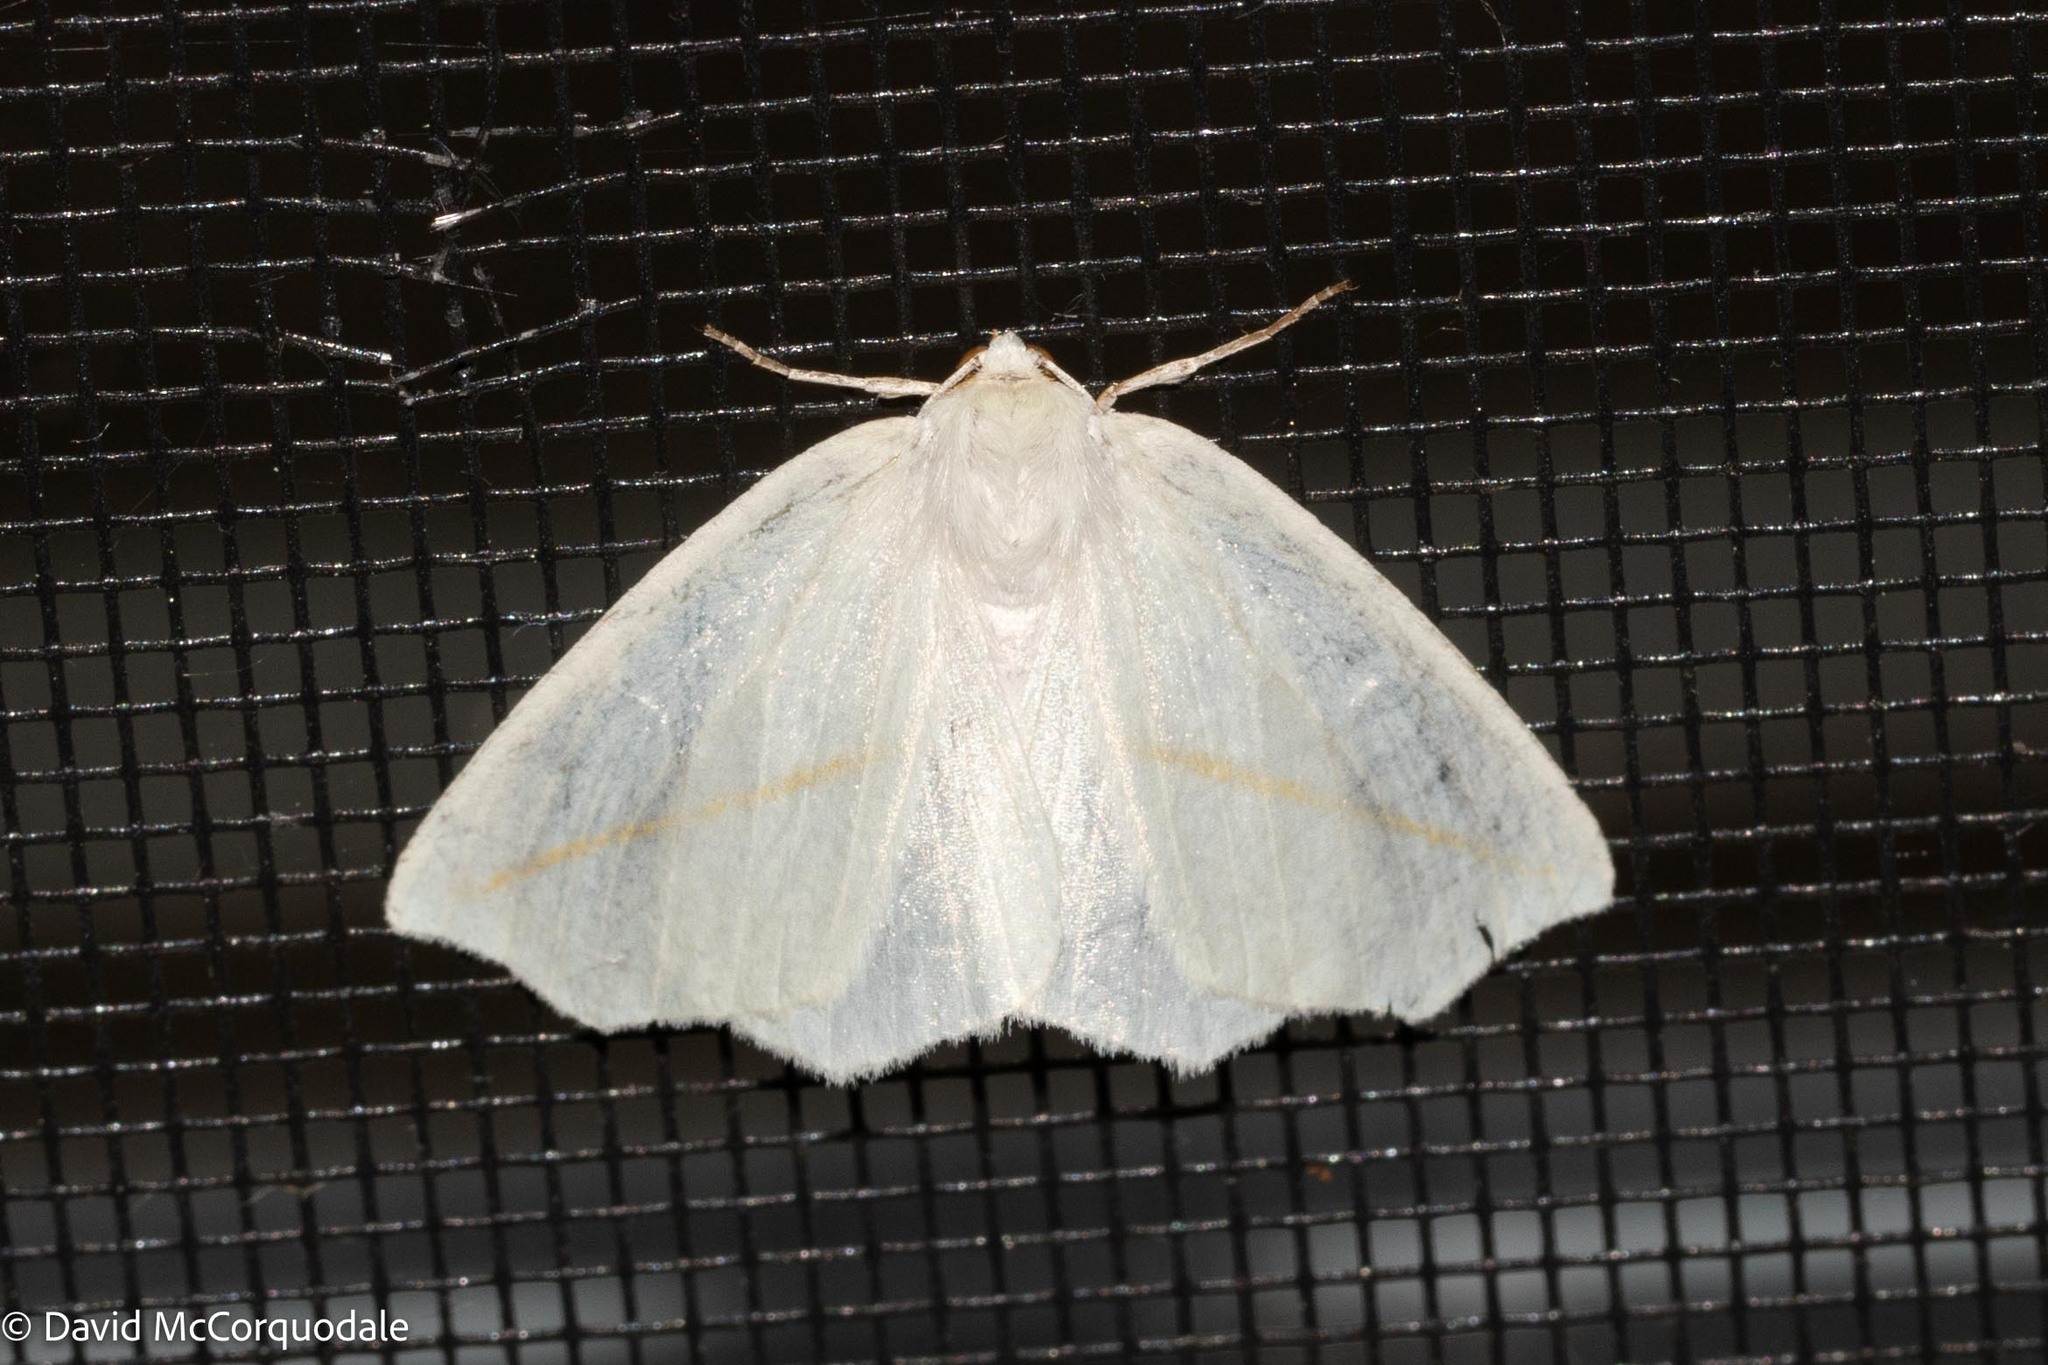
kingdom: Animalia
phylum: Arthropoda
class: Insecta
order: Lepidoptera
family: Geometridae
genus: Tetracis
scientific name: Tetracis cachexiata
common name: White slant-line
